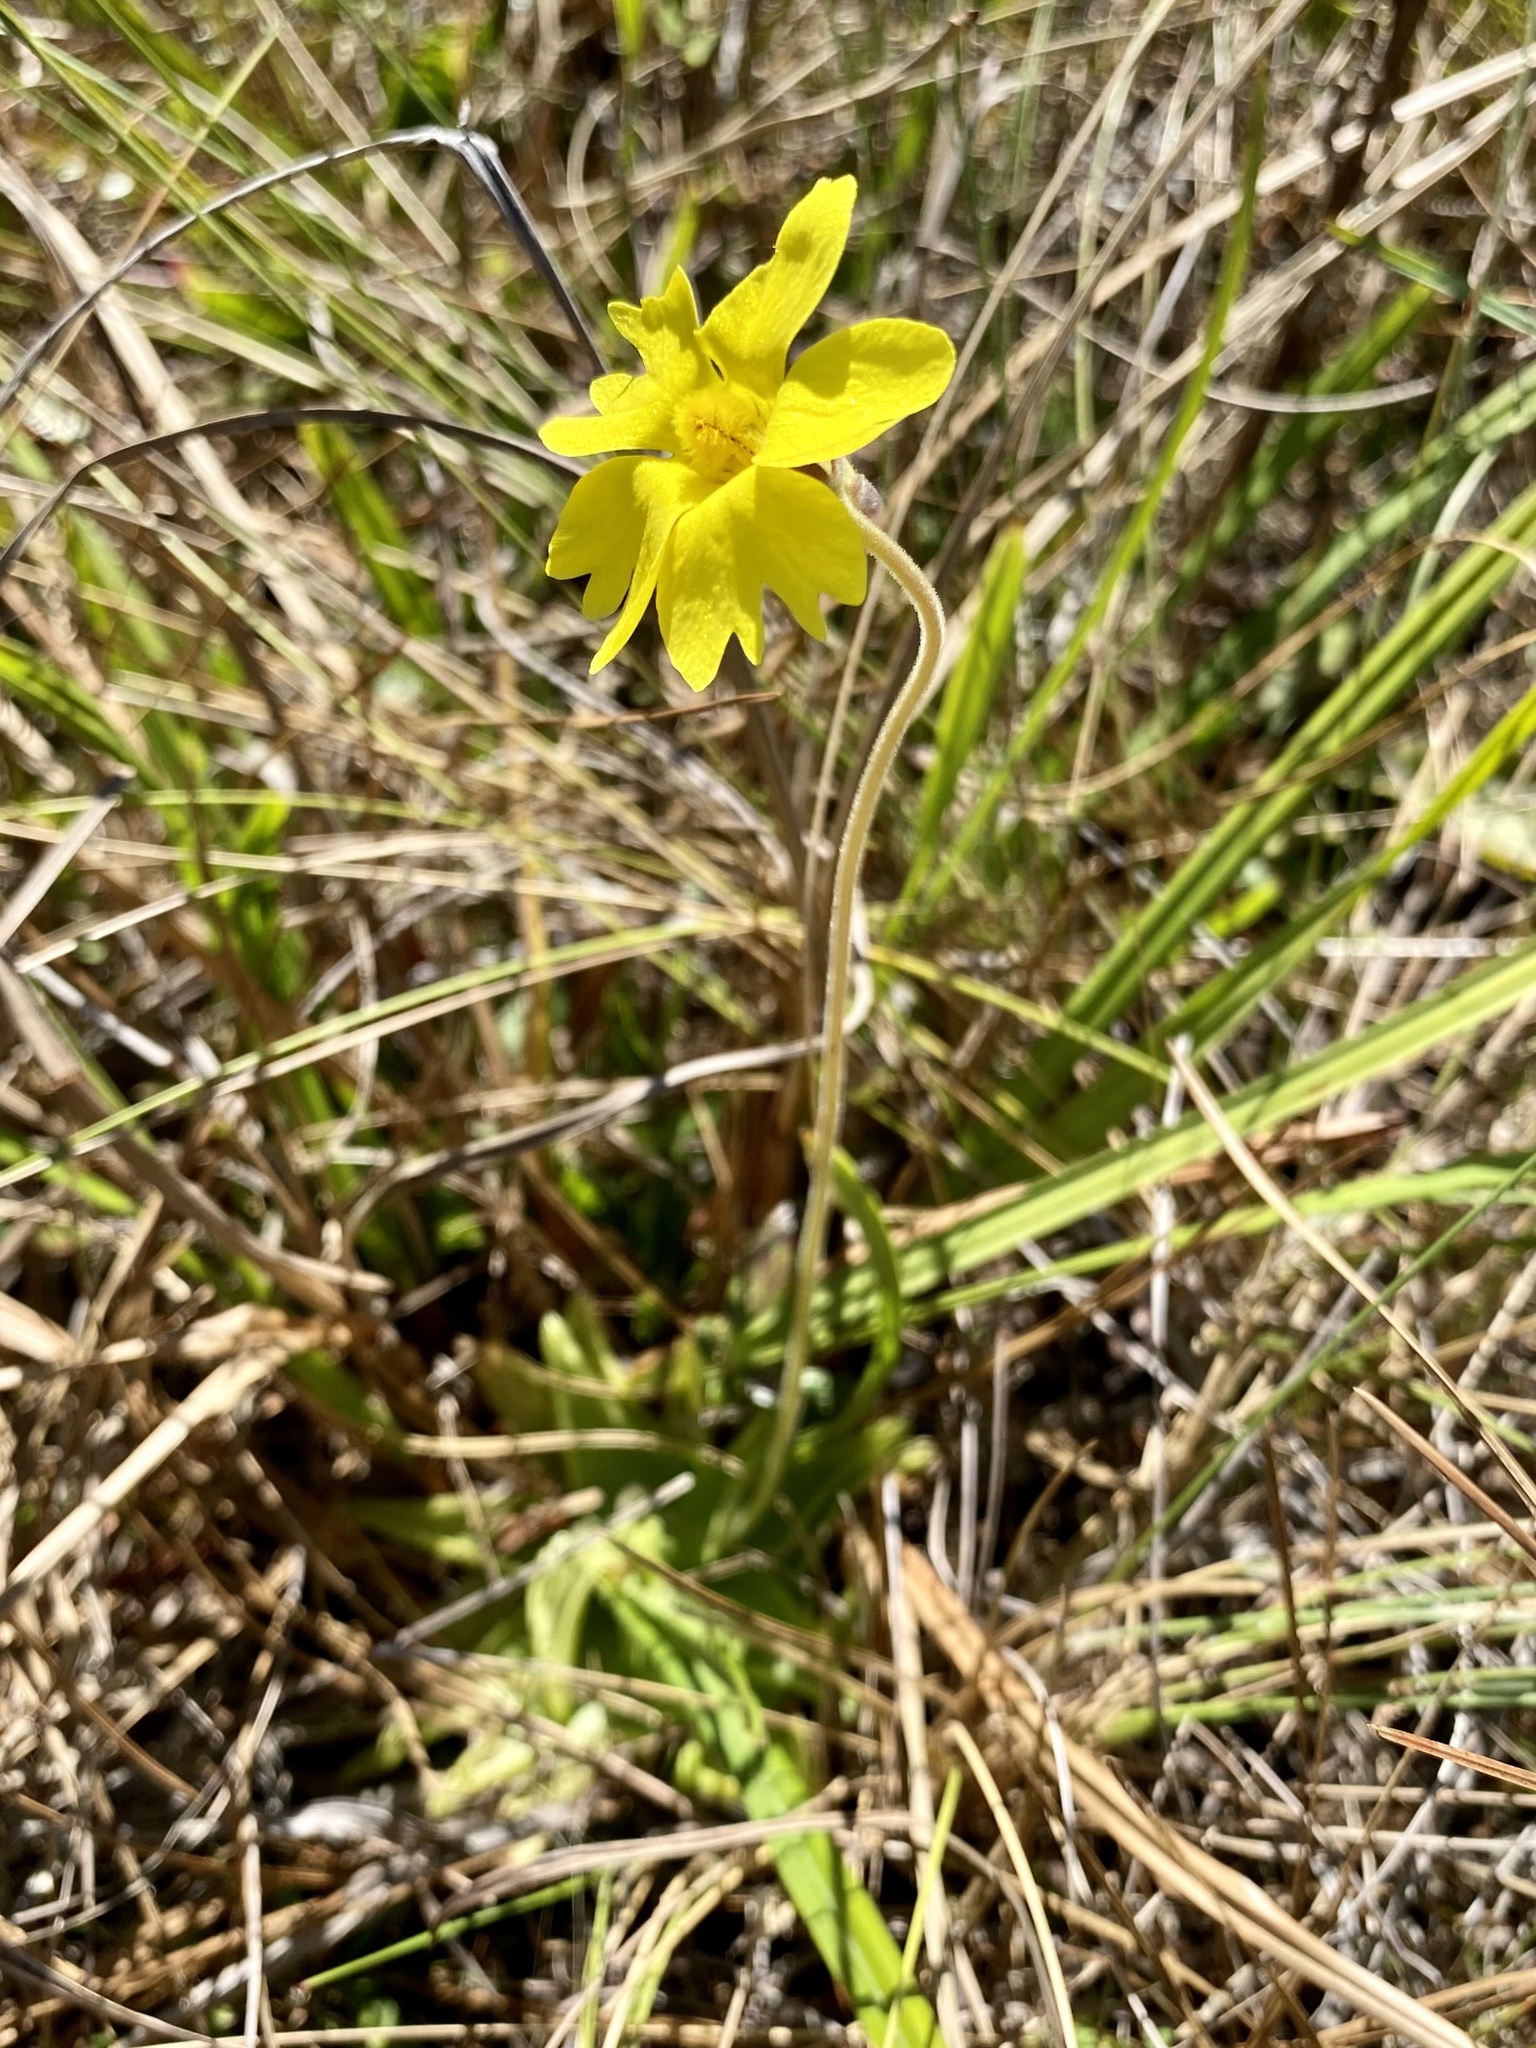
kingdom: Plantae
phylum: Tracheophyta
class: Magnoliopsida
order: Lamiales
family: Lentibulariaceae
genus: Pinguicula
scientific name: Pinguicula lutea
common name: Yellow butterwort
